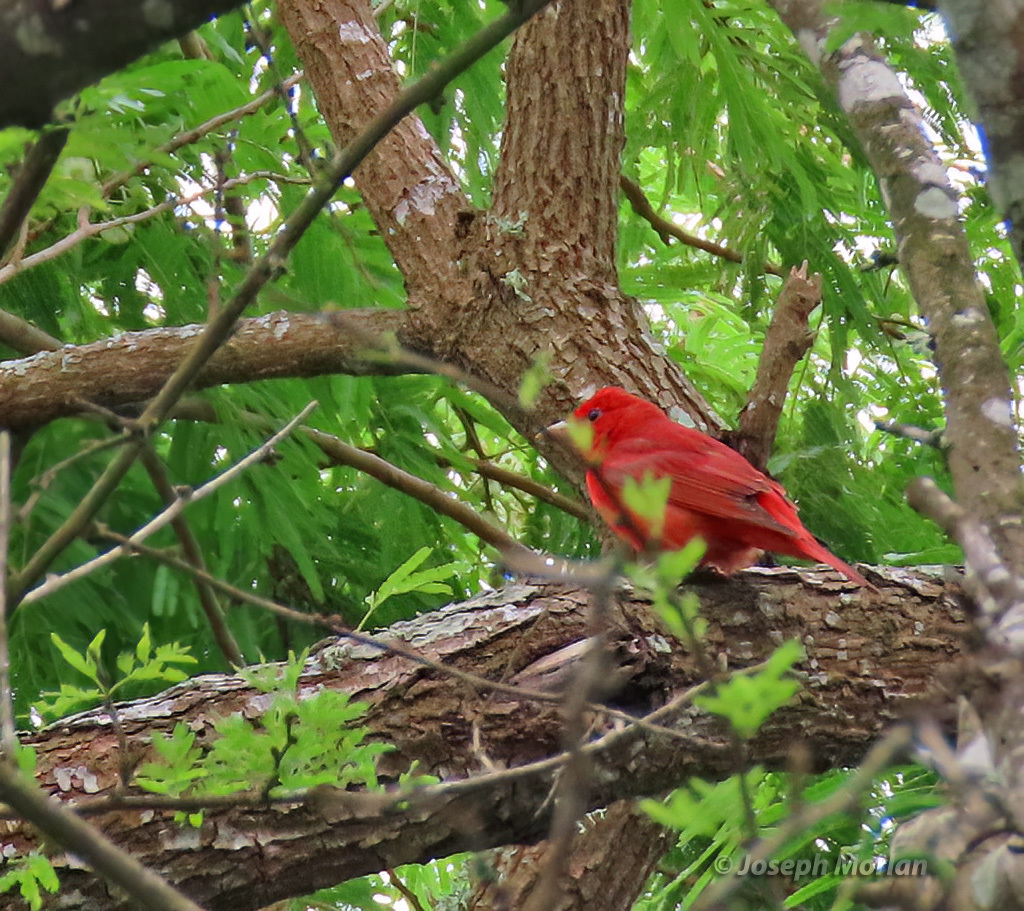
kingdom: Animalia
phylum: Chordata
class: Aves
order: Passeriformes
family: Cardinalidae
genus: Piranga
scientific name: Piranga rubra
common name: Summer tanager
